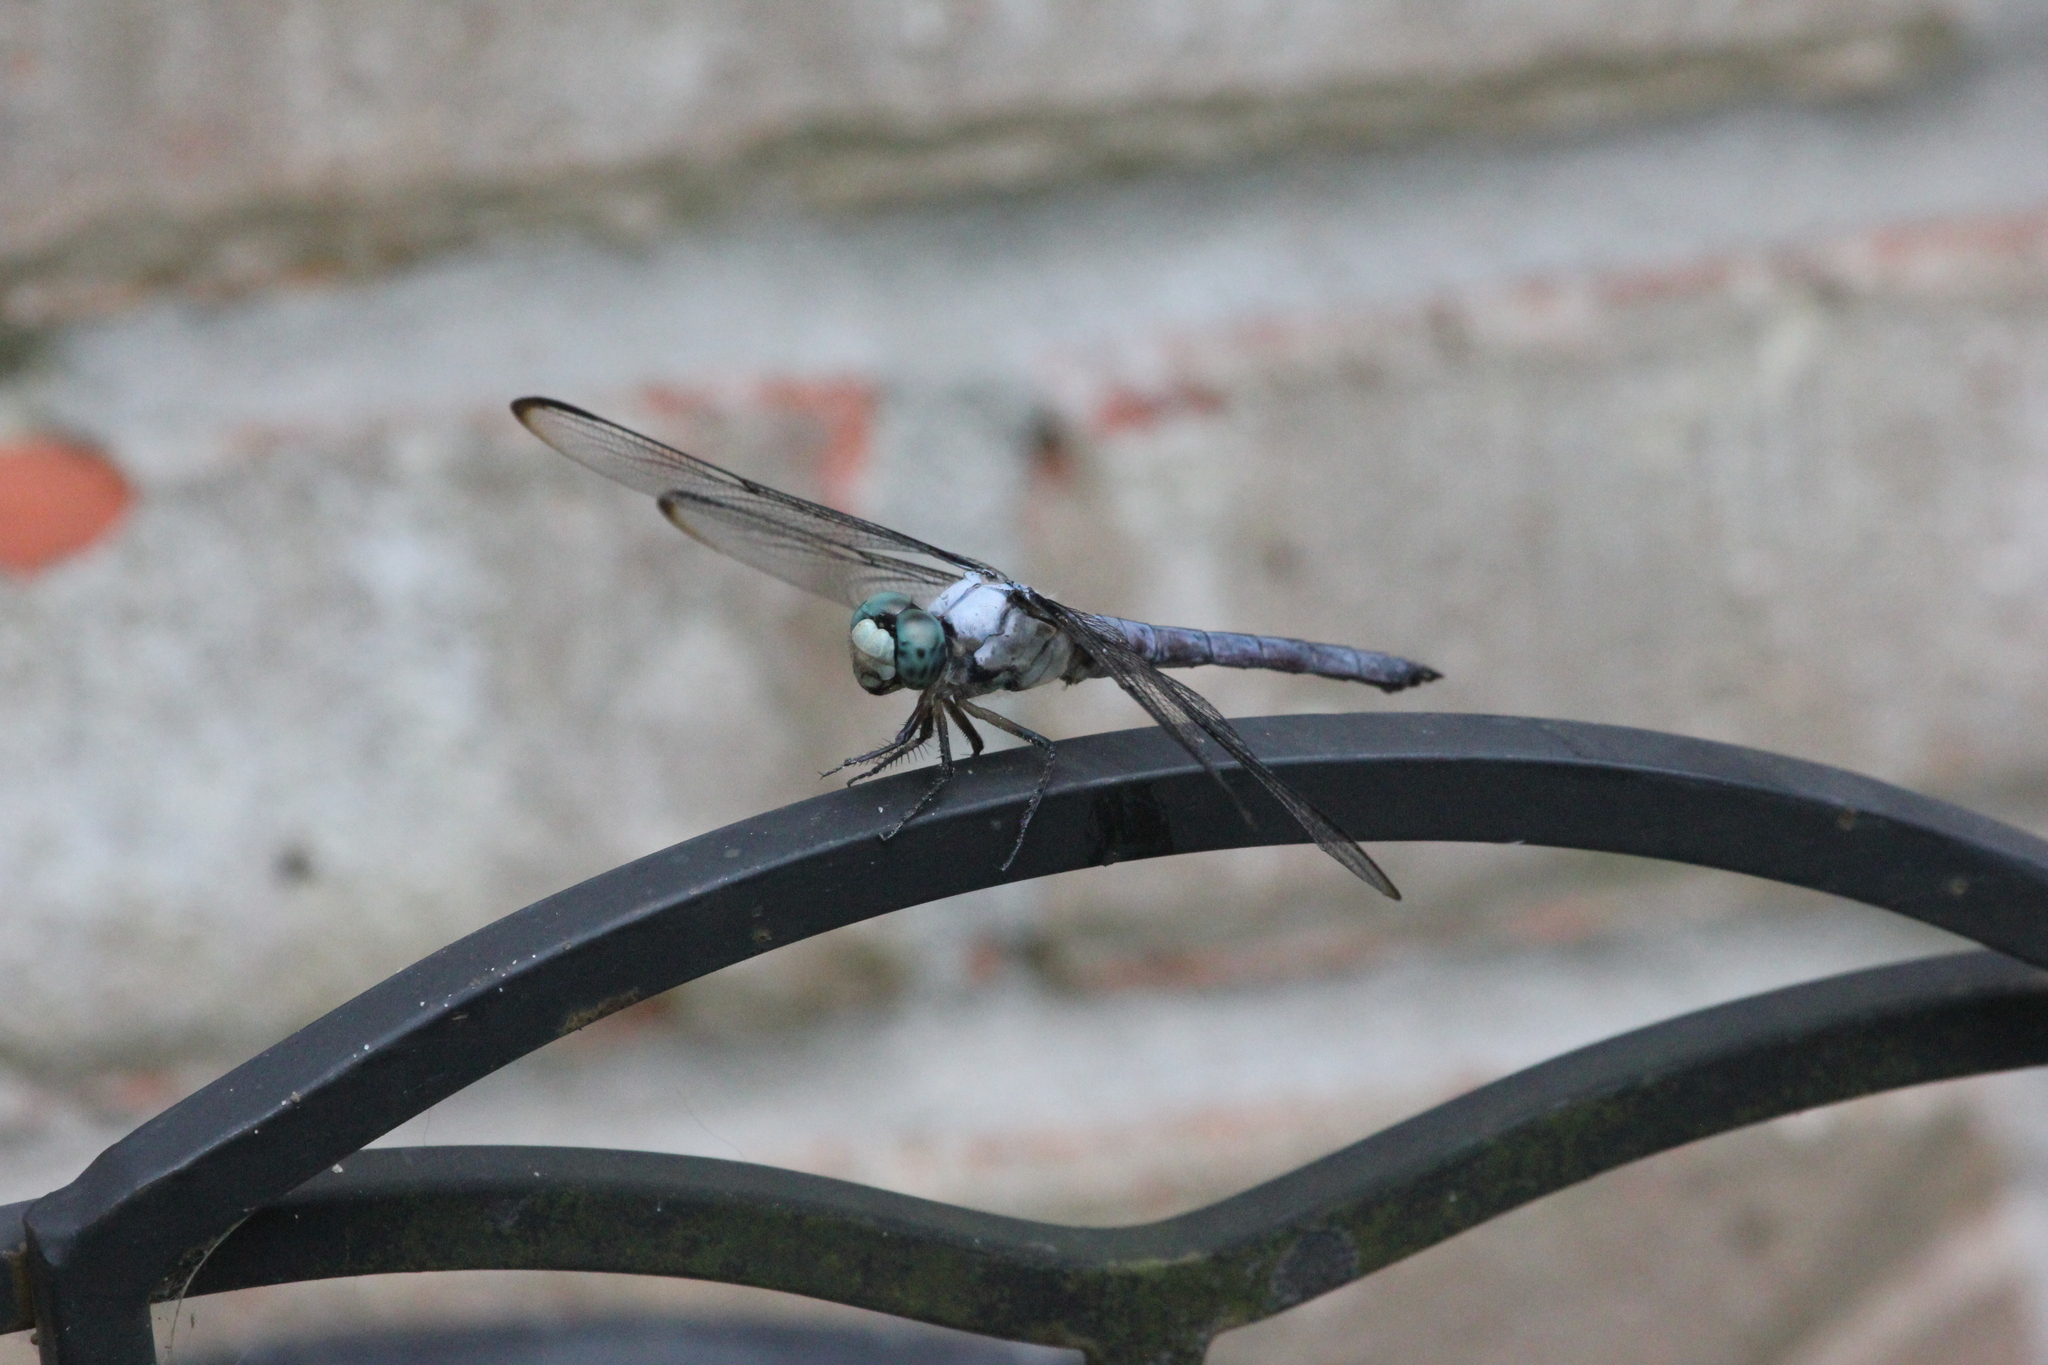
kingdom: Animalia
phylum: Arthropoda
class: Insecta
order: Odonata
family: Libellulidae
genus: Libellula
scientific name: Libellula vibrans
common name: Great blue skimmer
